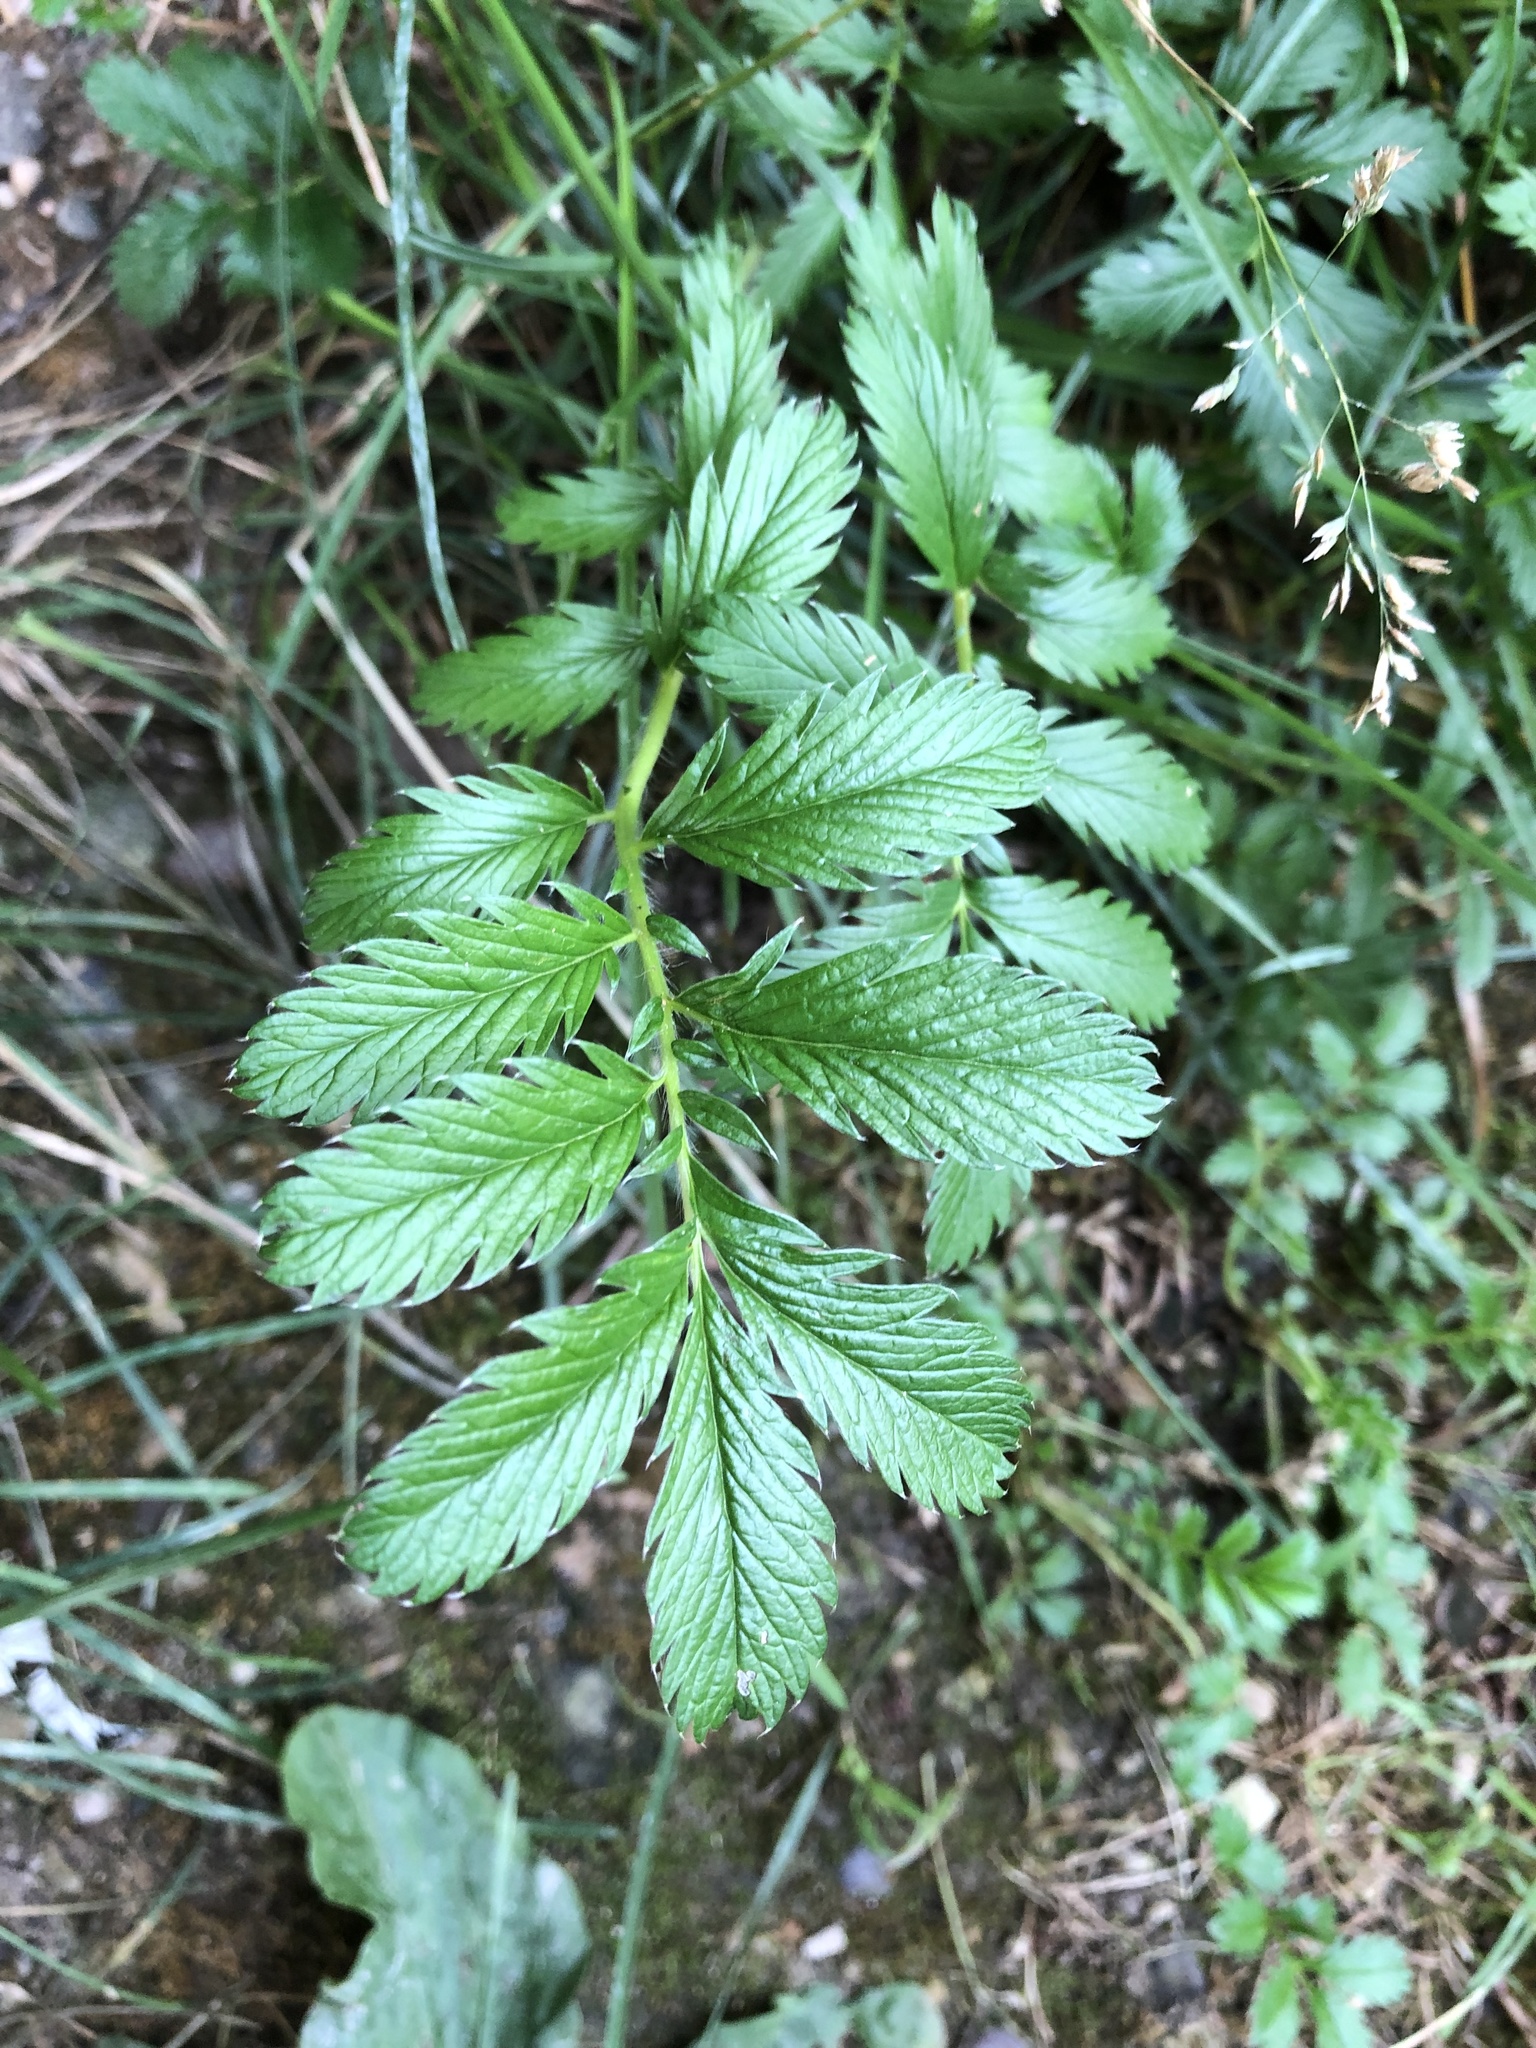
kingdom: Plantae
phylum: Tracheophyta
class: Magnoliopsida
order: Rosales
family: Rosaceae
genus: Argentina
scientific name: Argentina anserina
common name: Common silverweed
